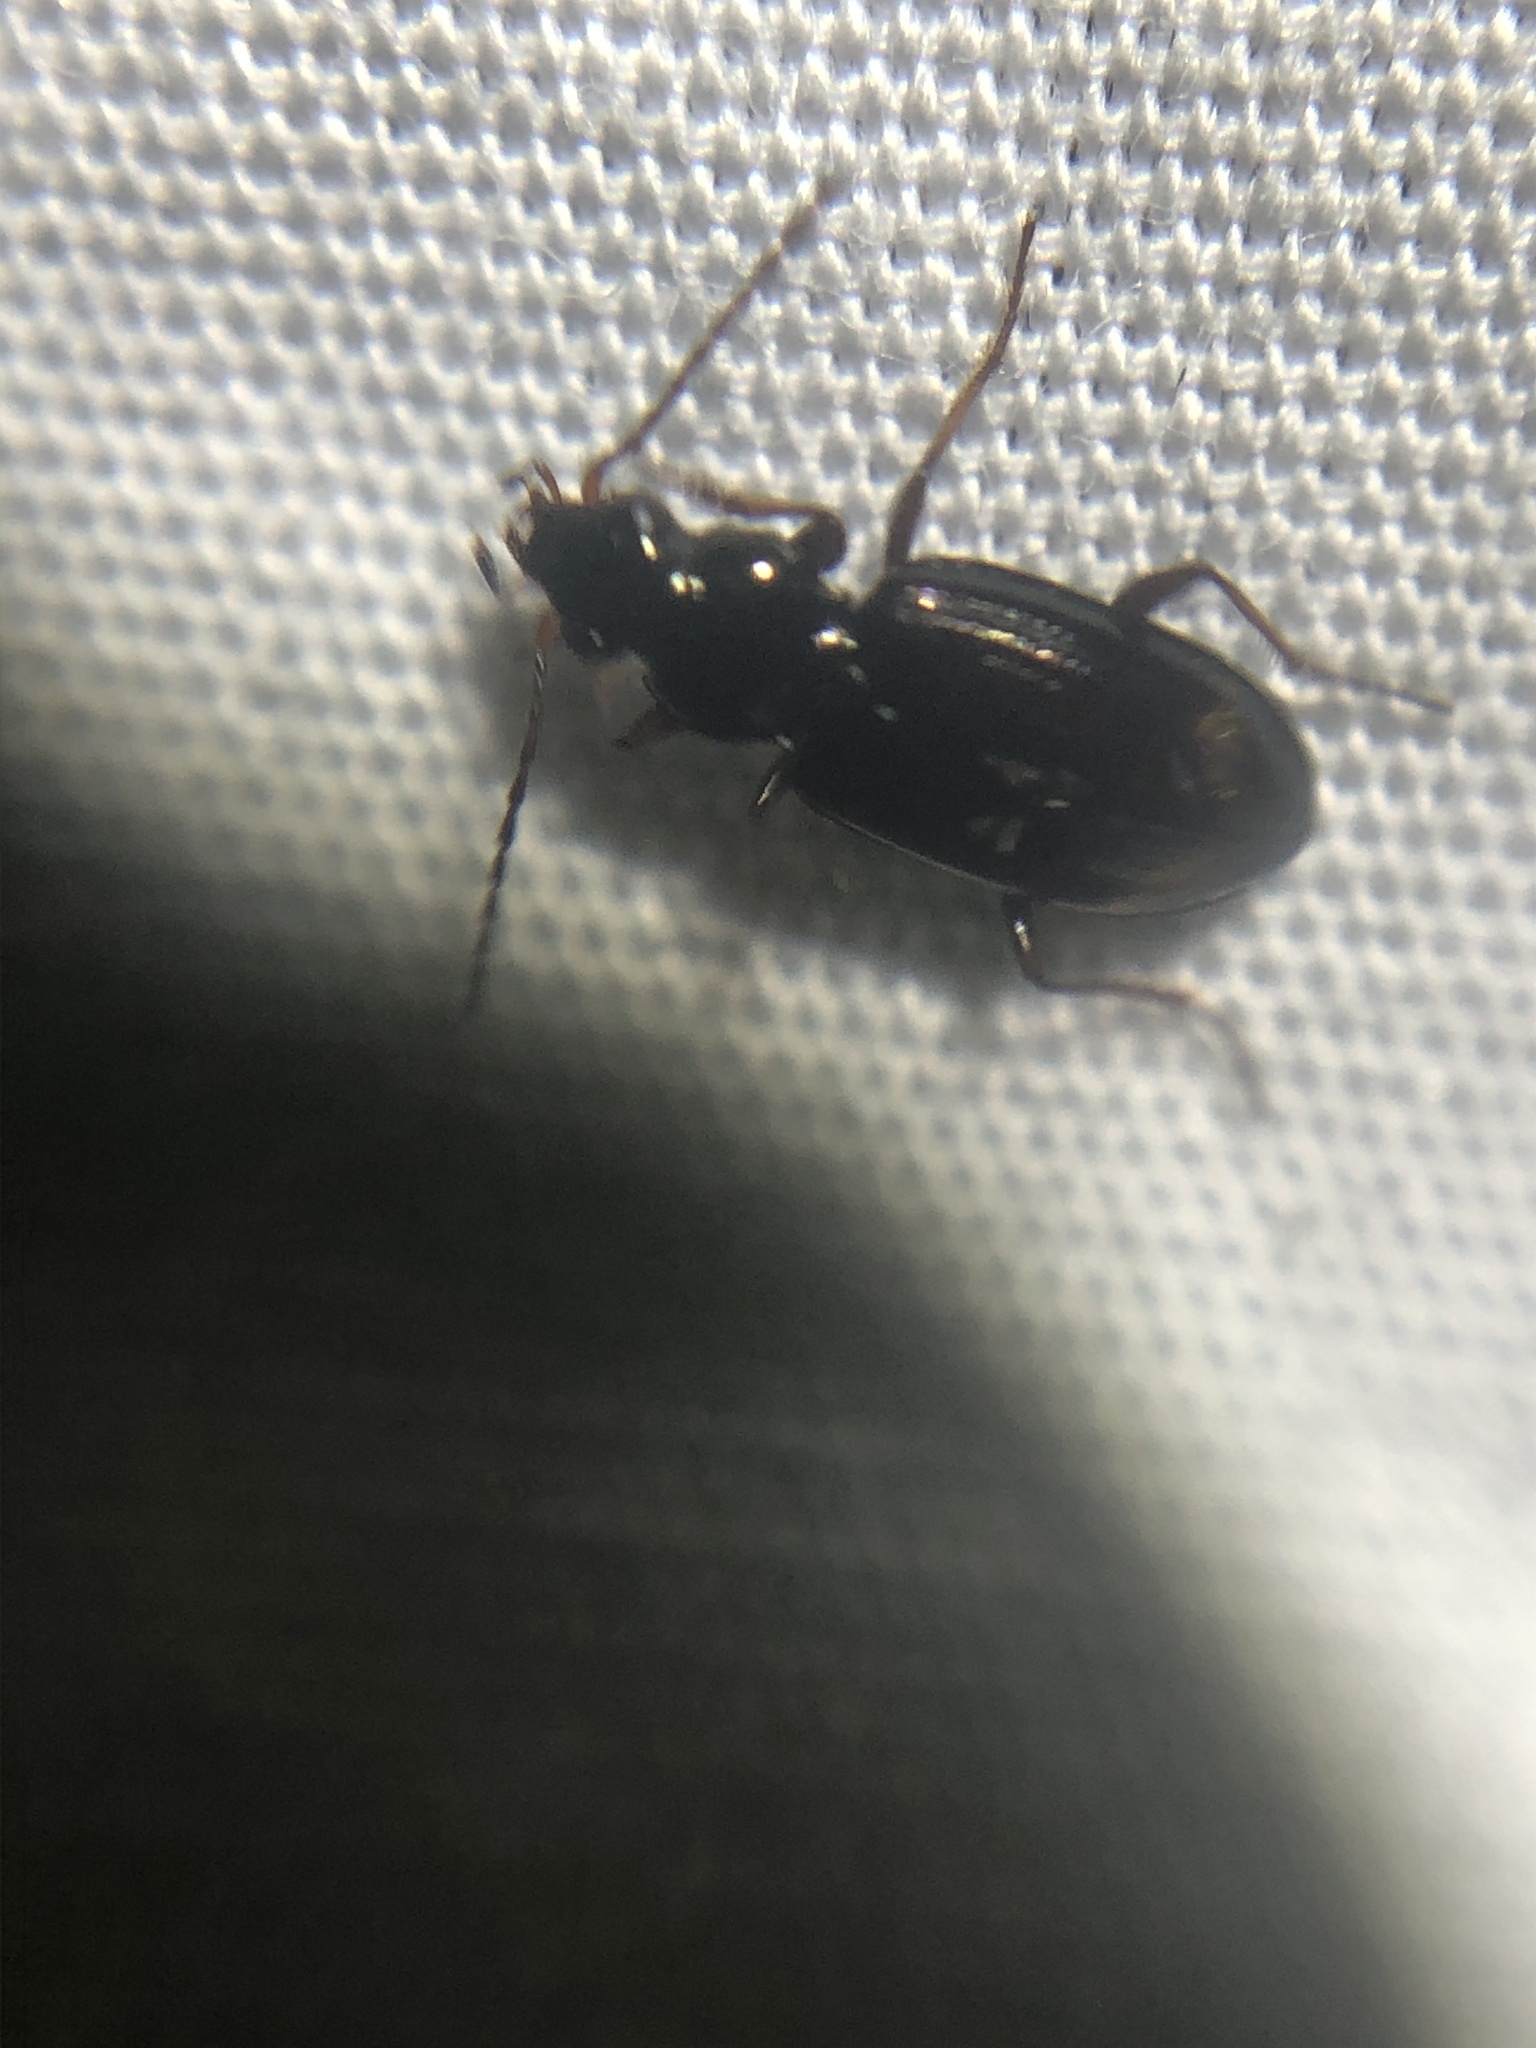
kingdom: Animalia
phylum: Arthropoda
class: Insecta
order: Coleoptera
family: Carabidae
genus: Bembidion
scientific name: Bembidion lugubre
